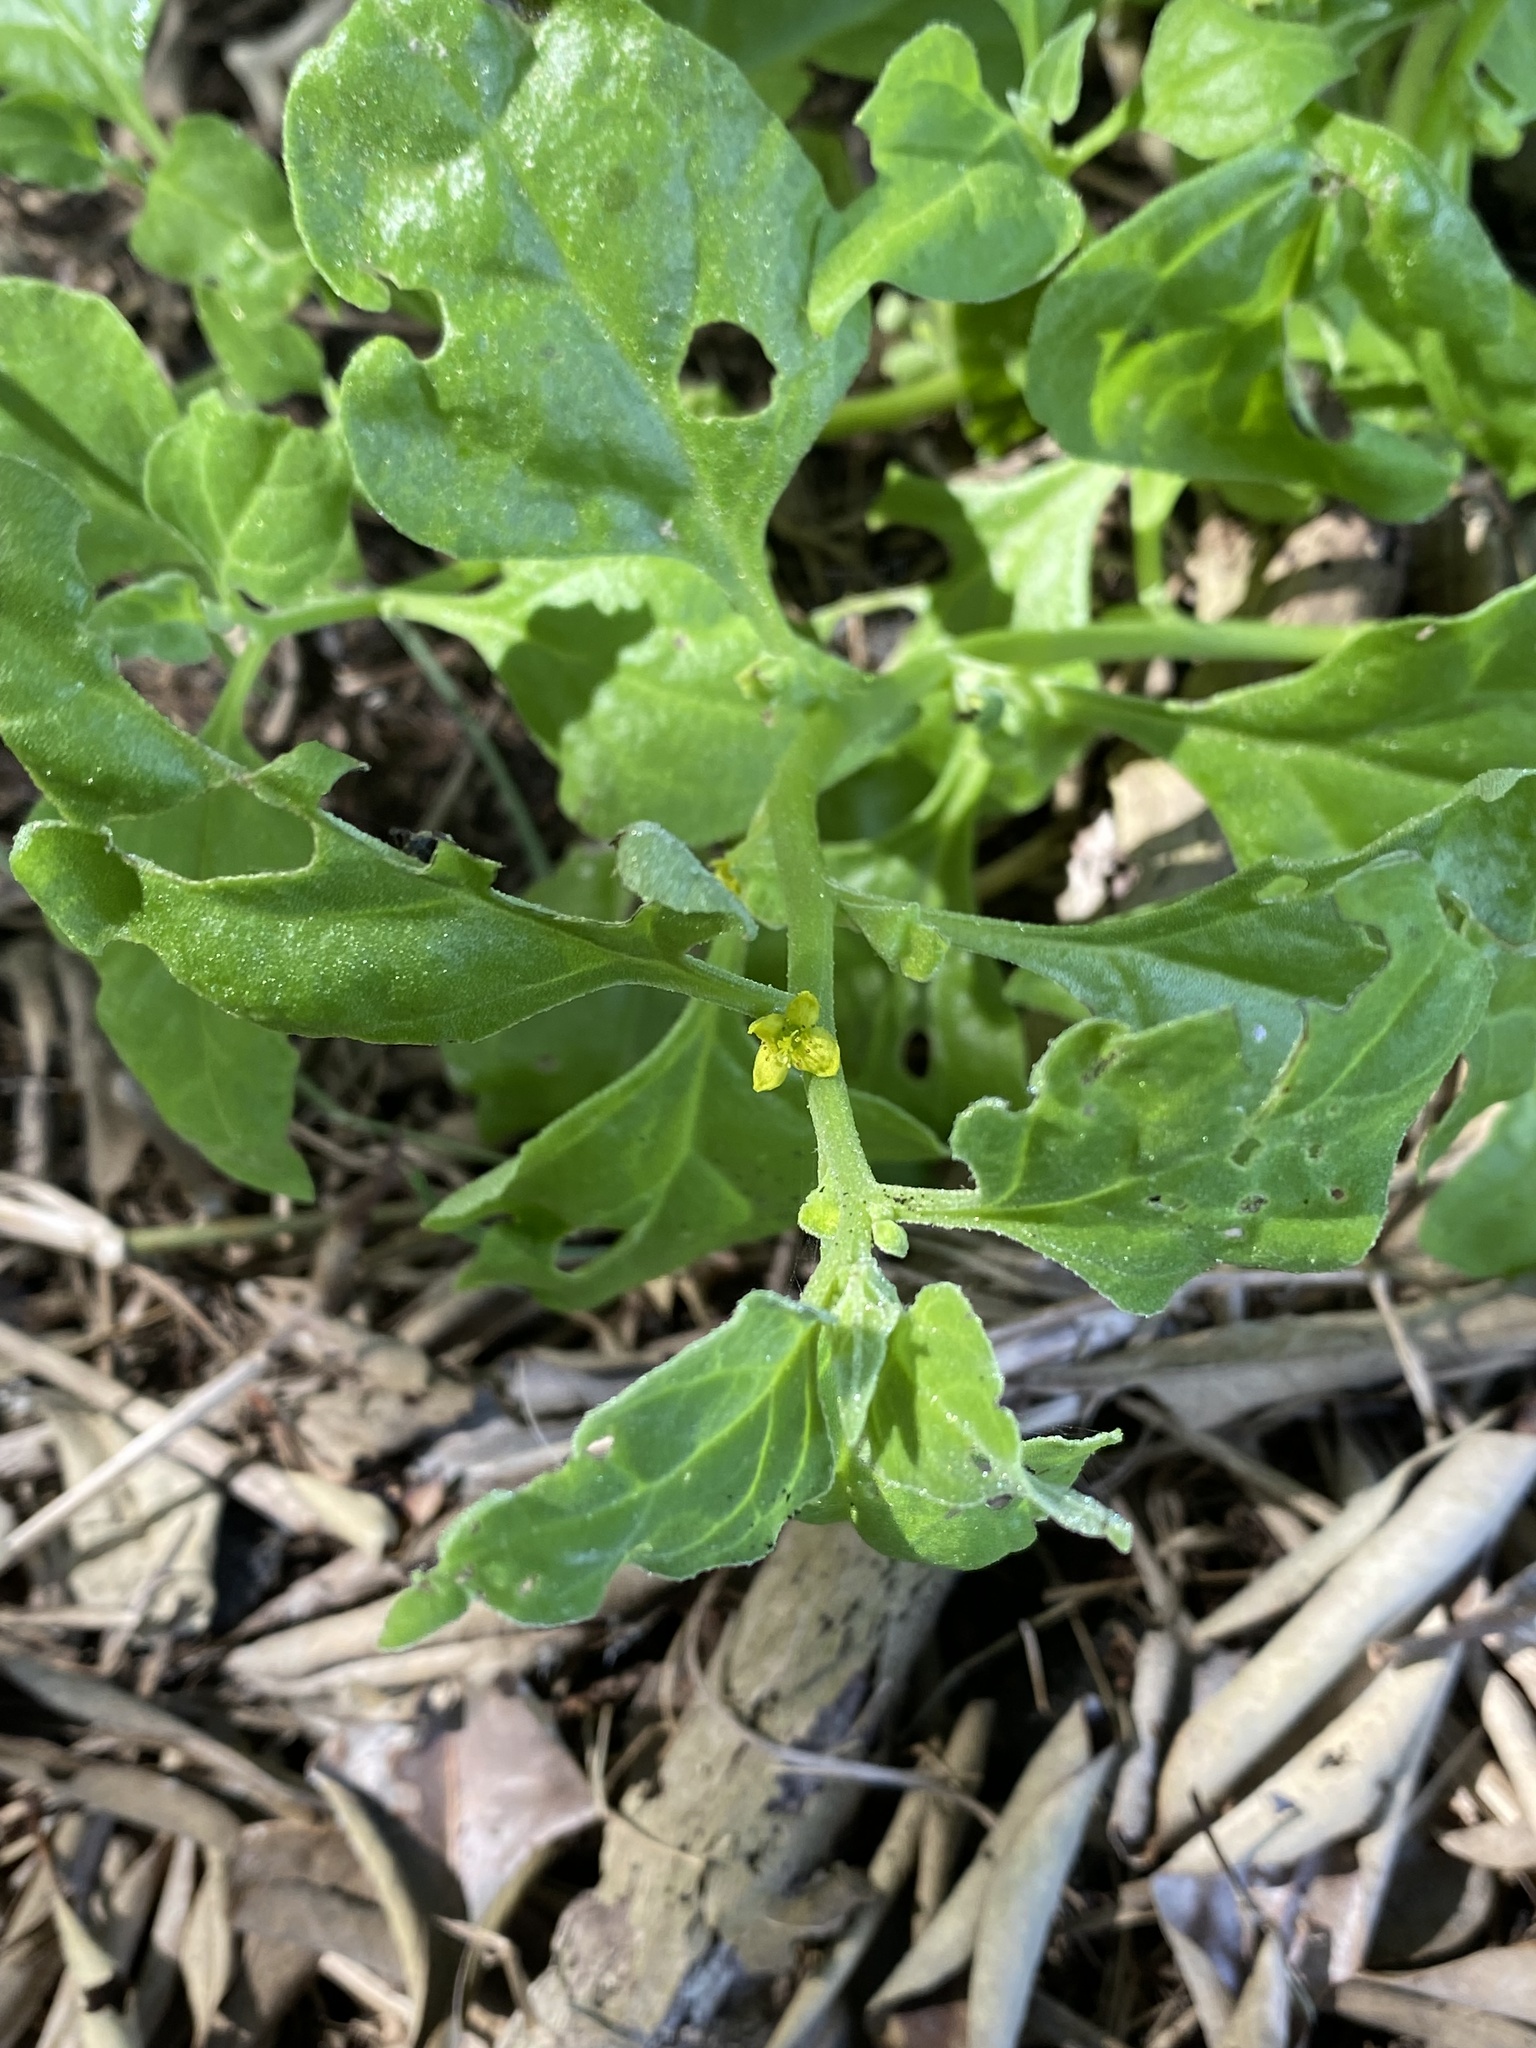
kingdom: Plantae
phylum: Tracheophyta
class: Magnoliopsida
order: Caryophyllales
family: Aizoaceae
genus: Tetragonia
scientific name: Tetragonia tetragonoides
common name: New zealand-spinach
